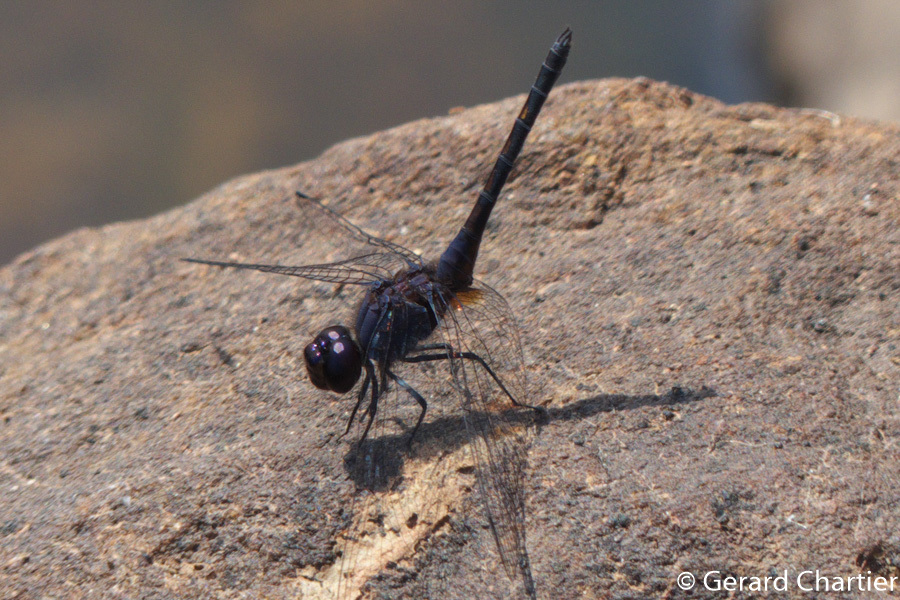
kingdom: Animalia
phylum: Arthropoda
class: Insecta
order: Odonata
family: Libellulidae
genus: Trithemis
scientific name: Trithemis festiva
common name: Indigo dropwing
